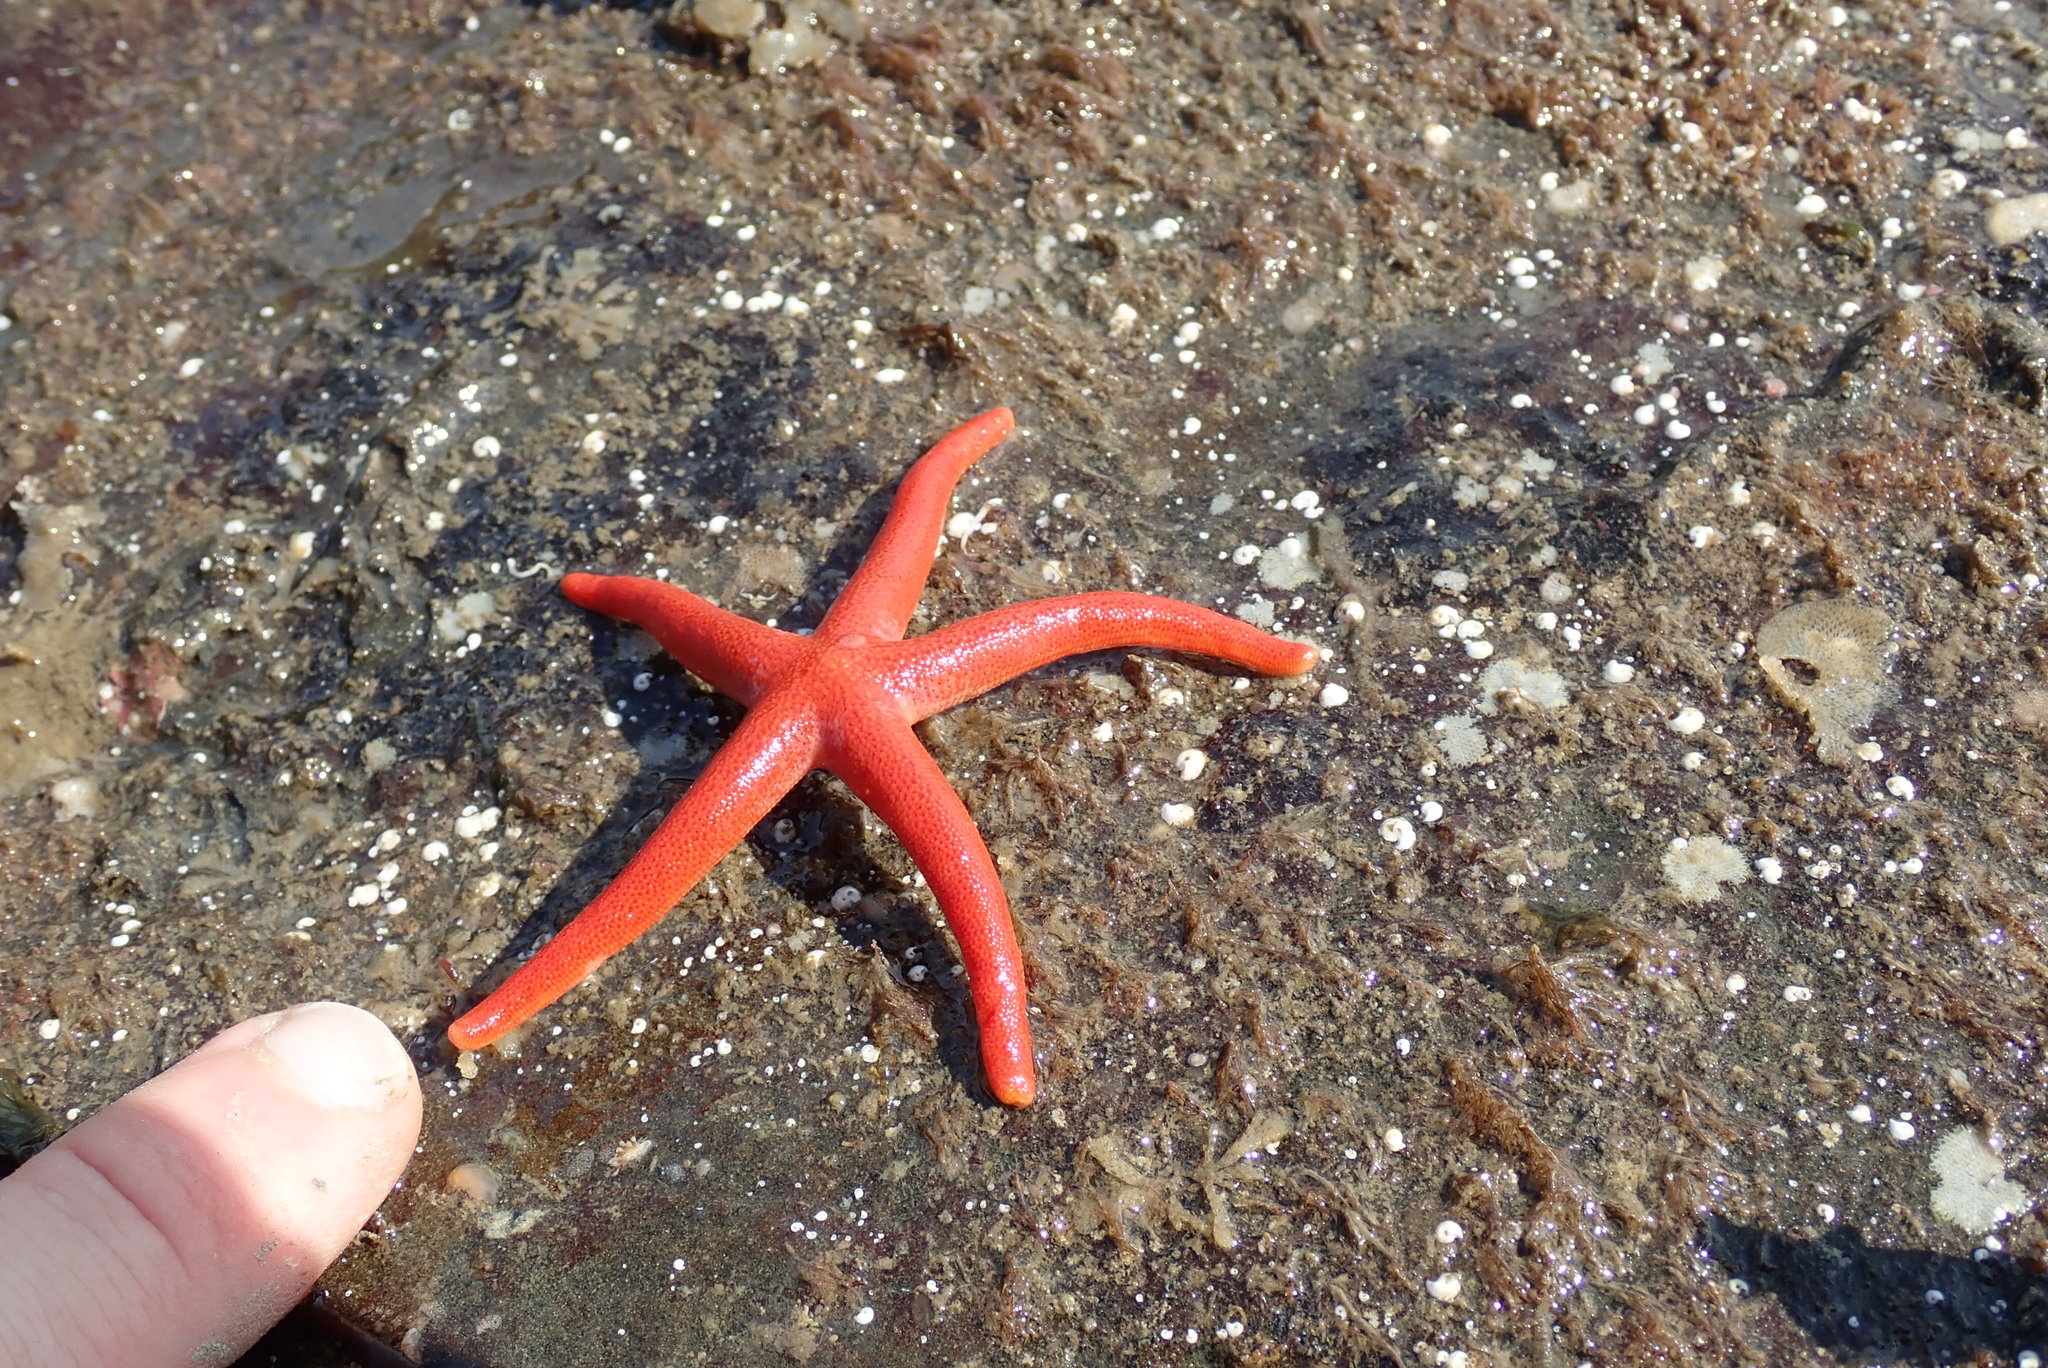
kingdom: Animalia
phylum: Echinodermata
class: Asteroidea
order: Spinulosida
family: Echinasteridae
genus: Henricia
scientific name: Henricia
